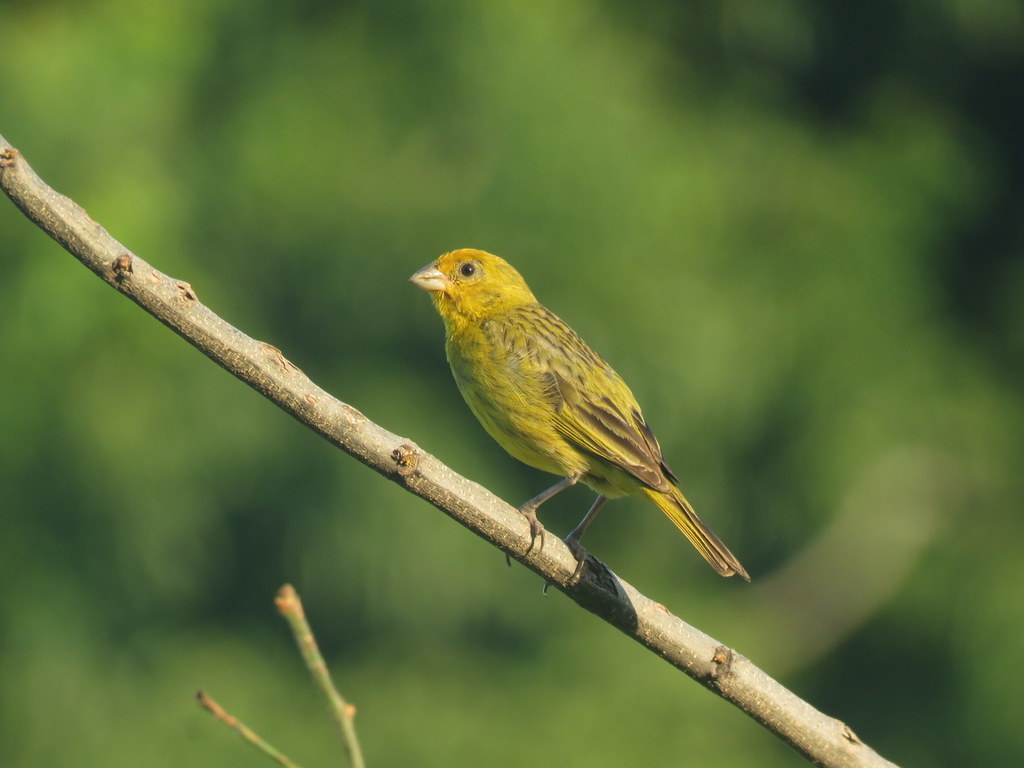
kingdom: Animalia
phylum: Chordata
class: Aves
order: Passeriformes
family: Thraupidae
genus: Sicalis
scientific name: Sicalis flaveola
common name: Saffron finch
